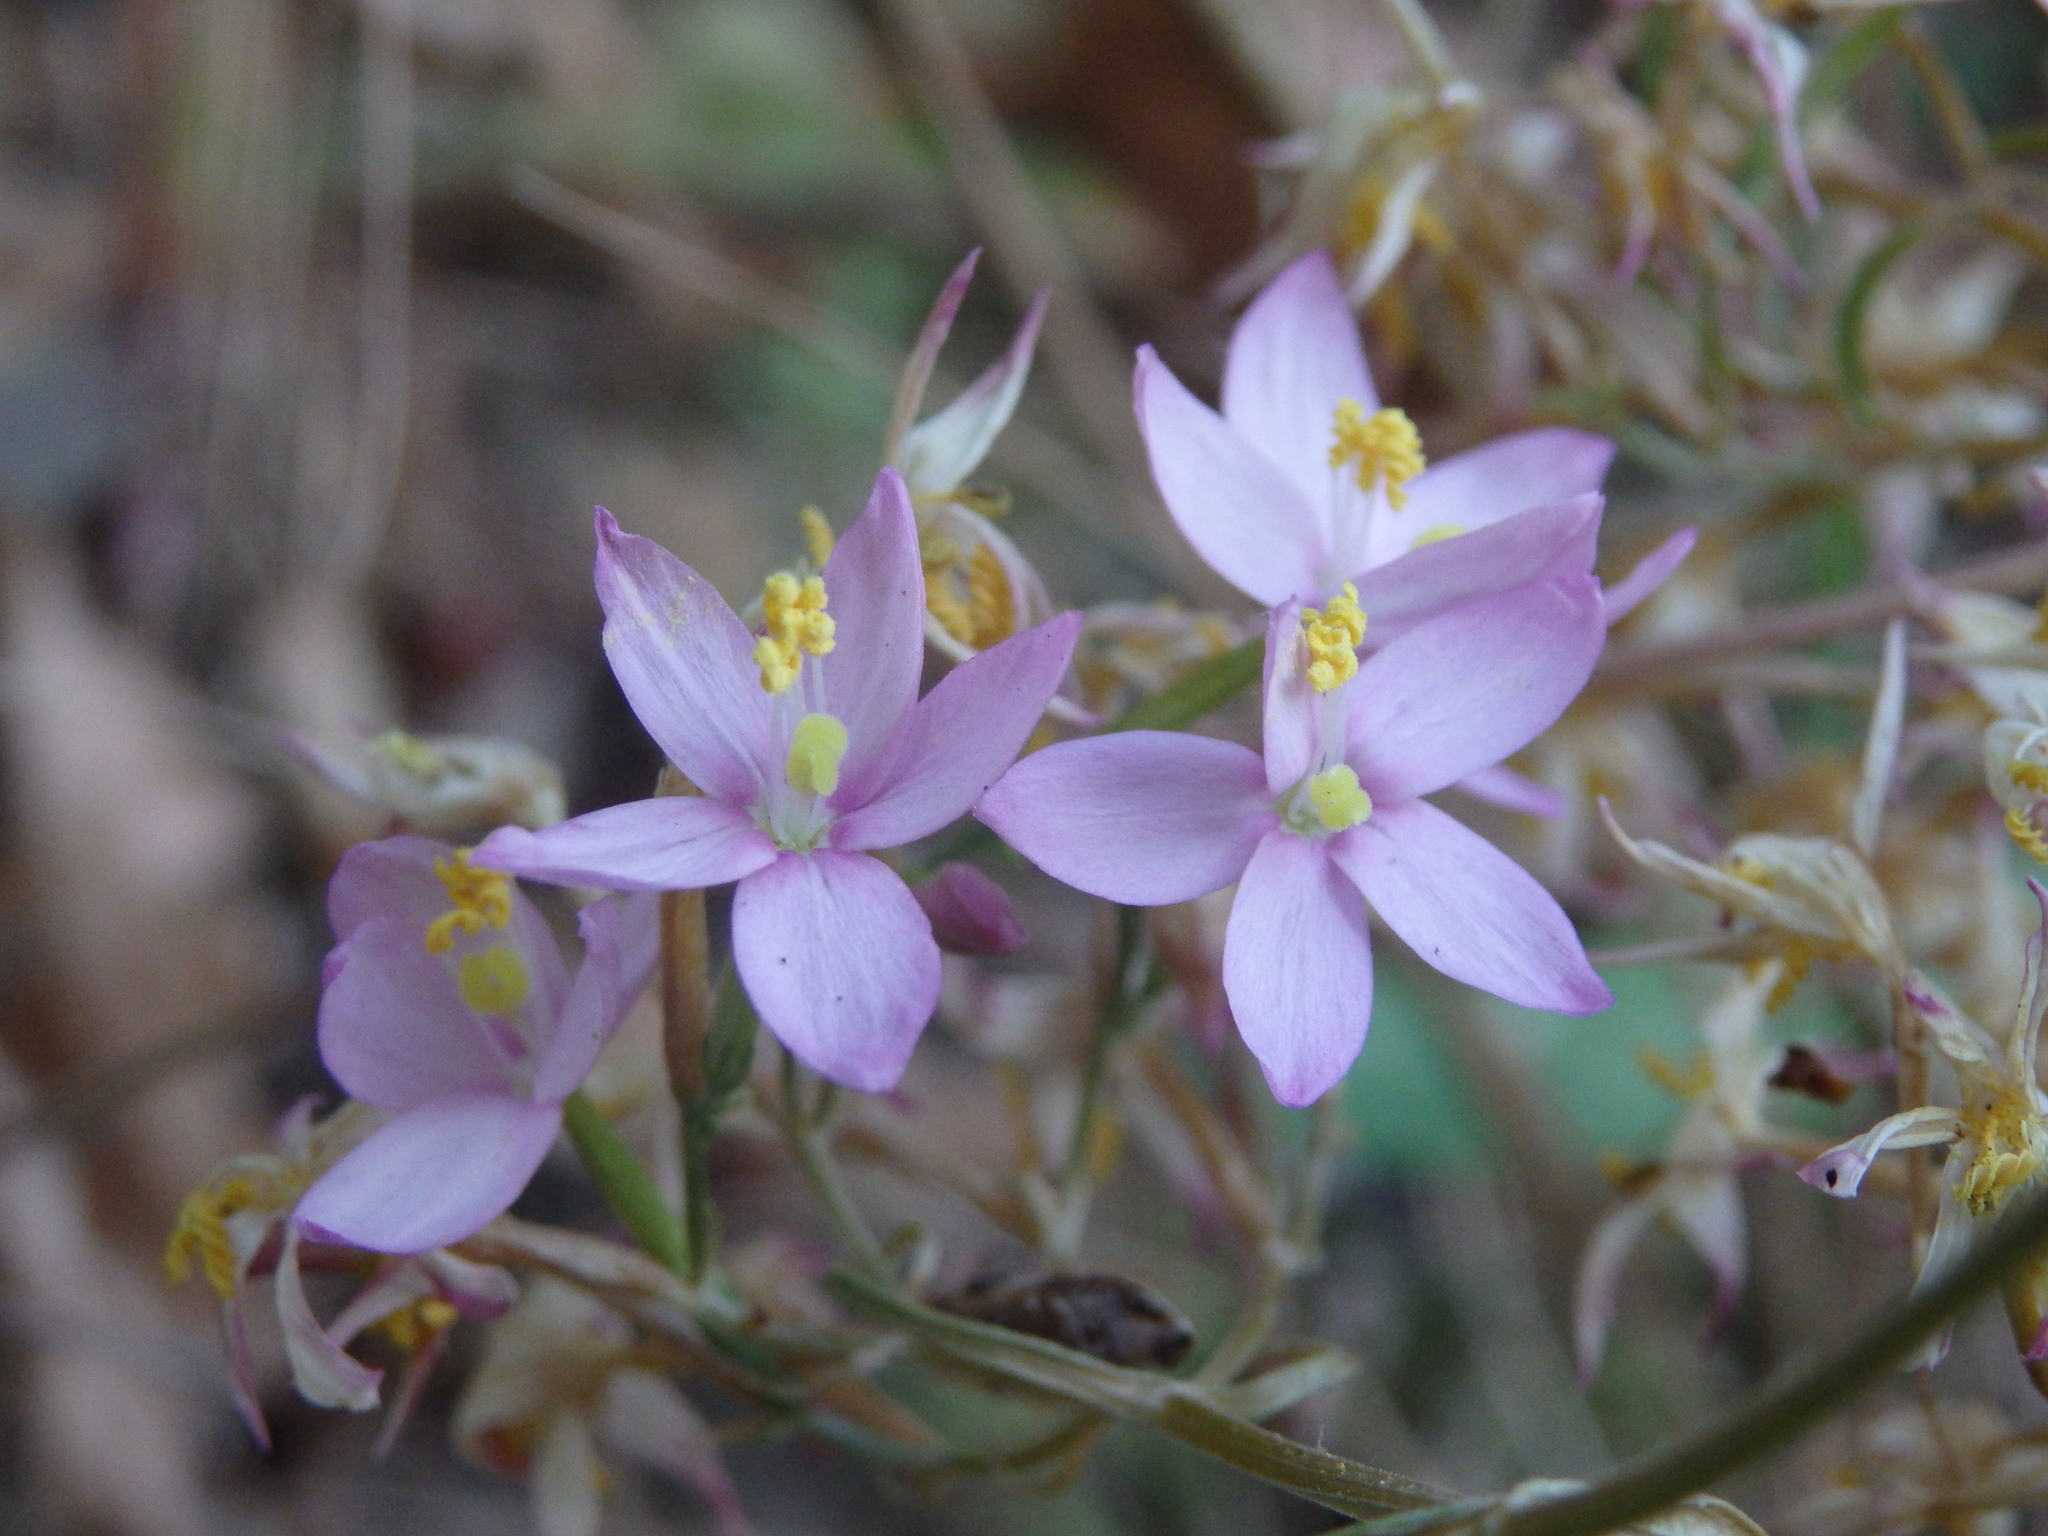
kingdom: Plantae
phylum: Tracheophyta
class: Magnoliopsida
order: Gentianales
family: Gentianaceae
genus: Centaurium
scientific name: Centaurium erythraea
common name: Common centaury
